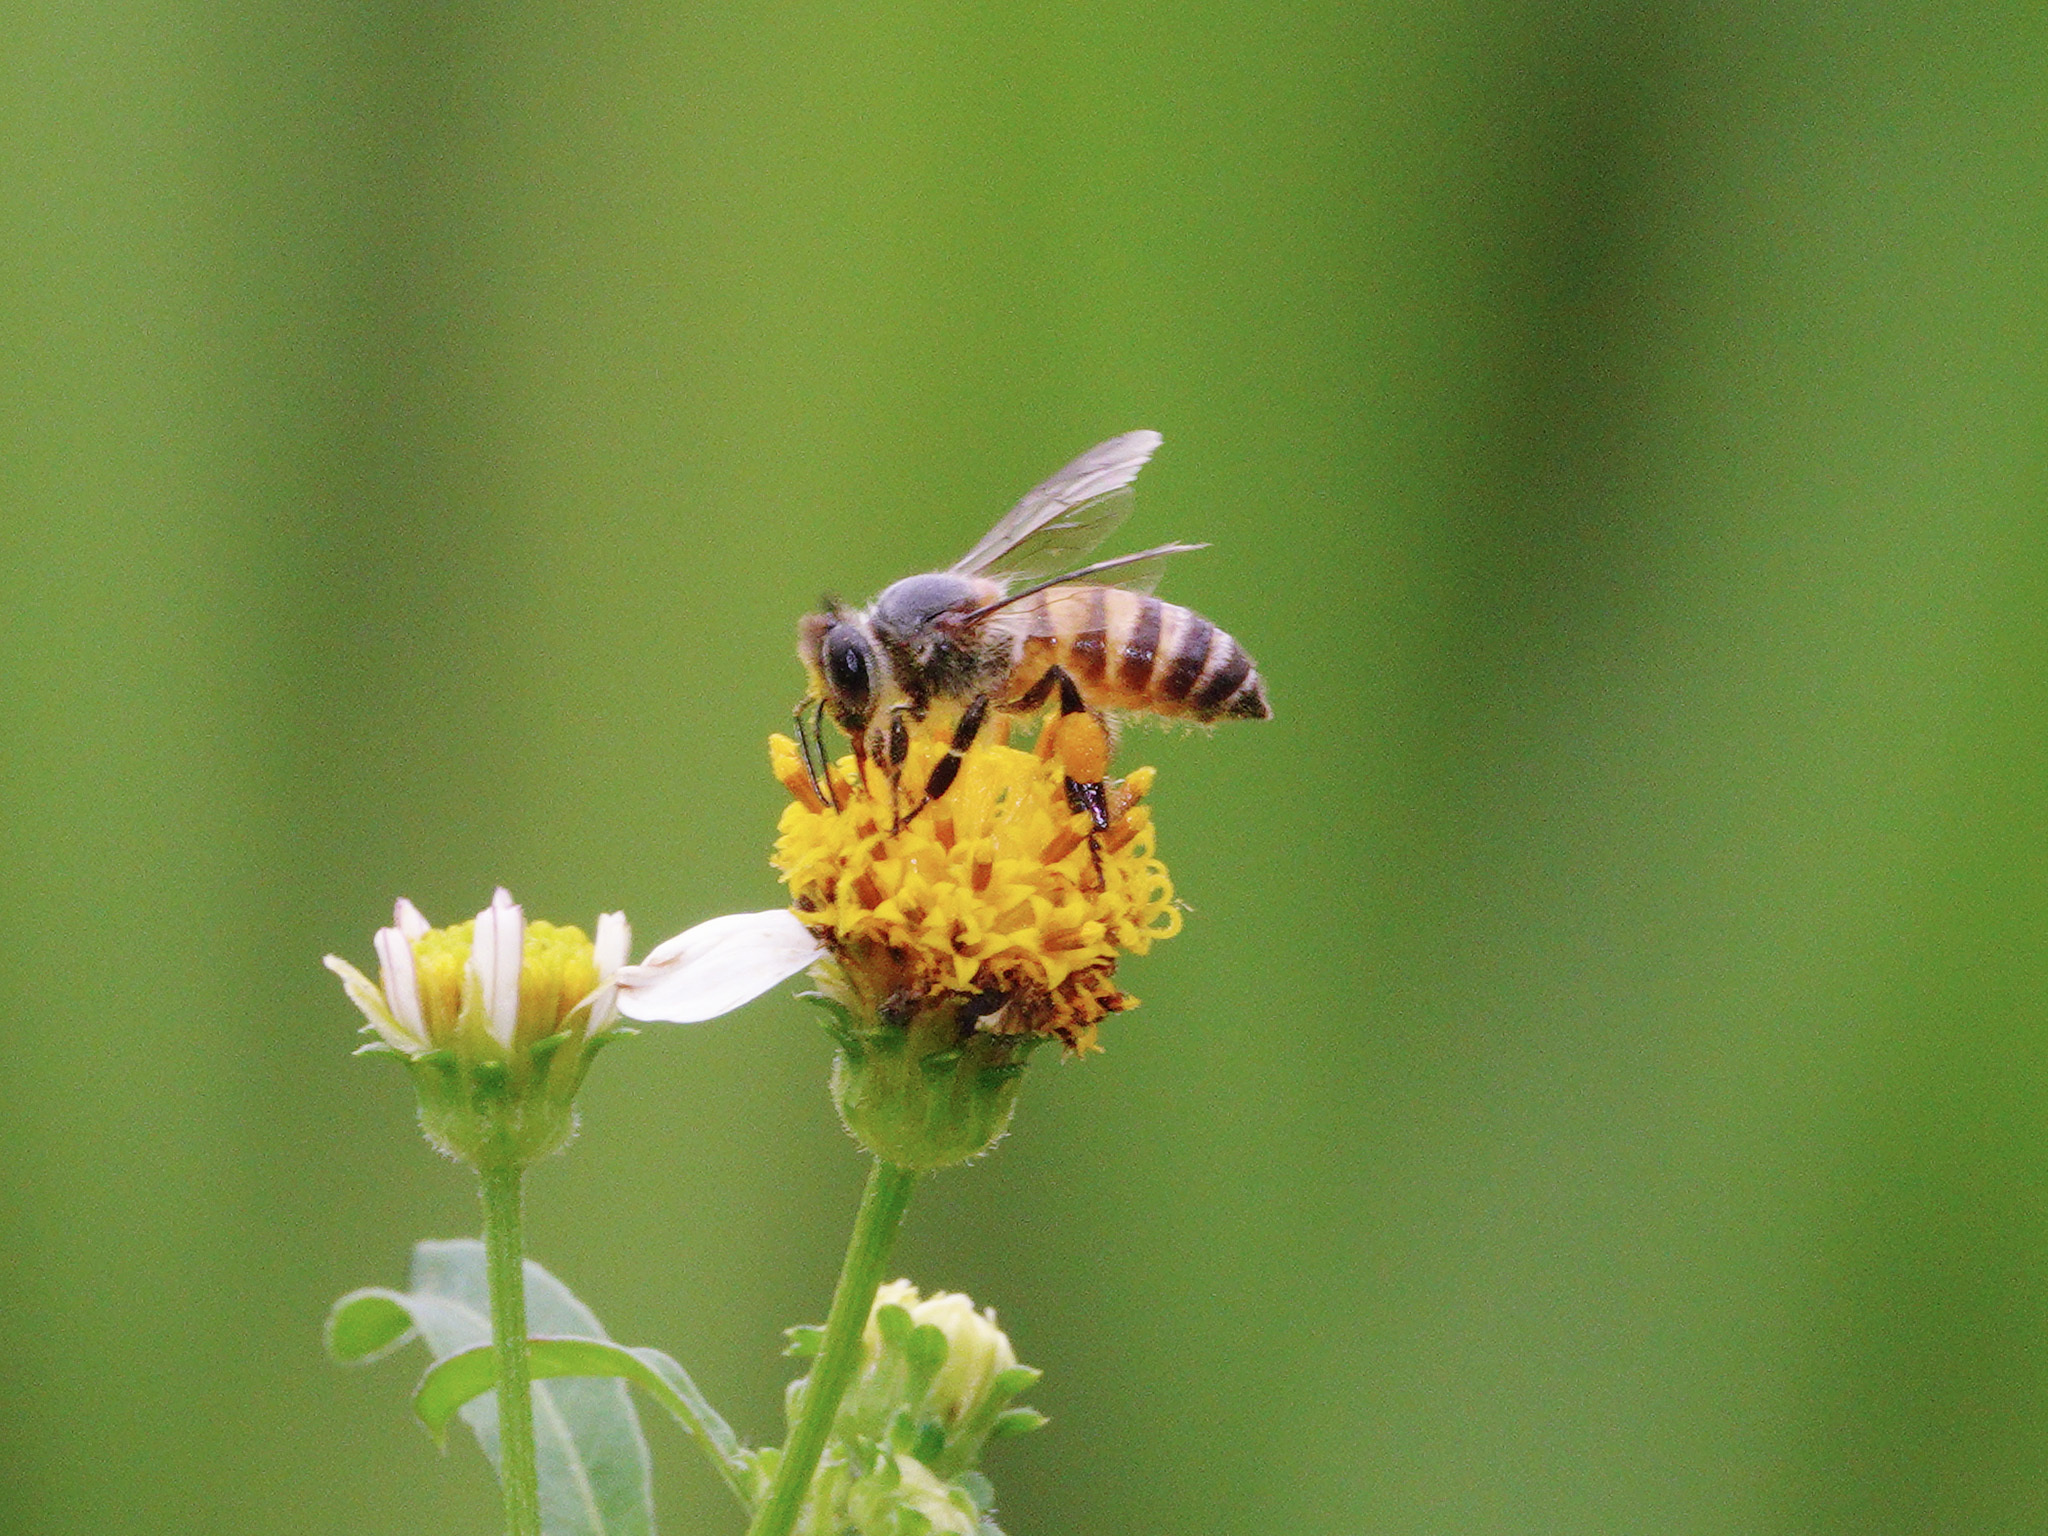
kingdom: Animalia
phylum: Arthropoda
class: Insecta
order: Hymenoptera
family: Apidae
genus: Apis
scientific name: Apis cerana
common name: Honey bee
